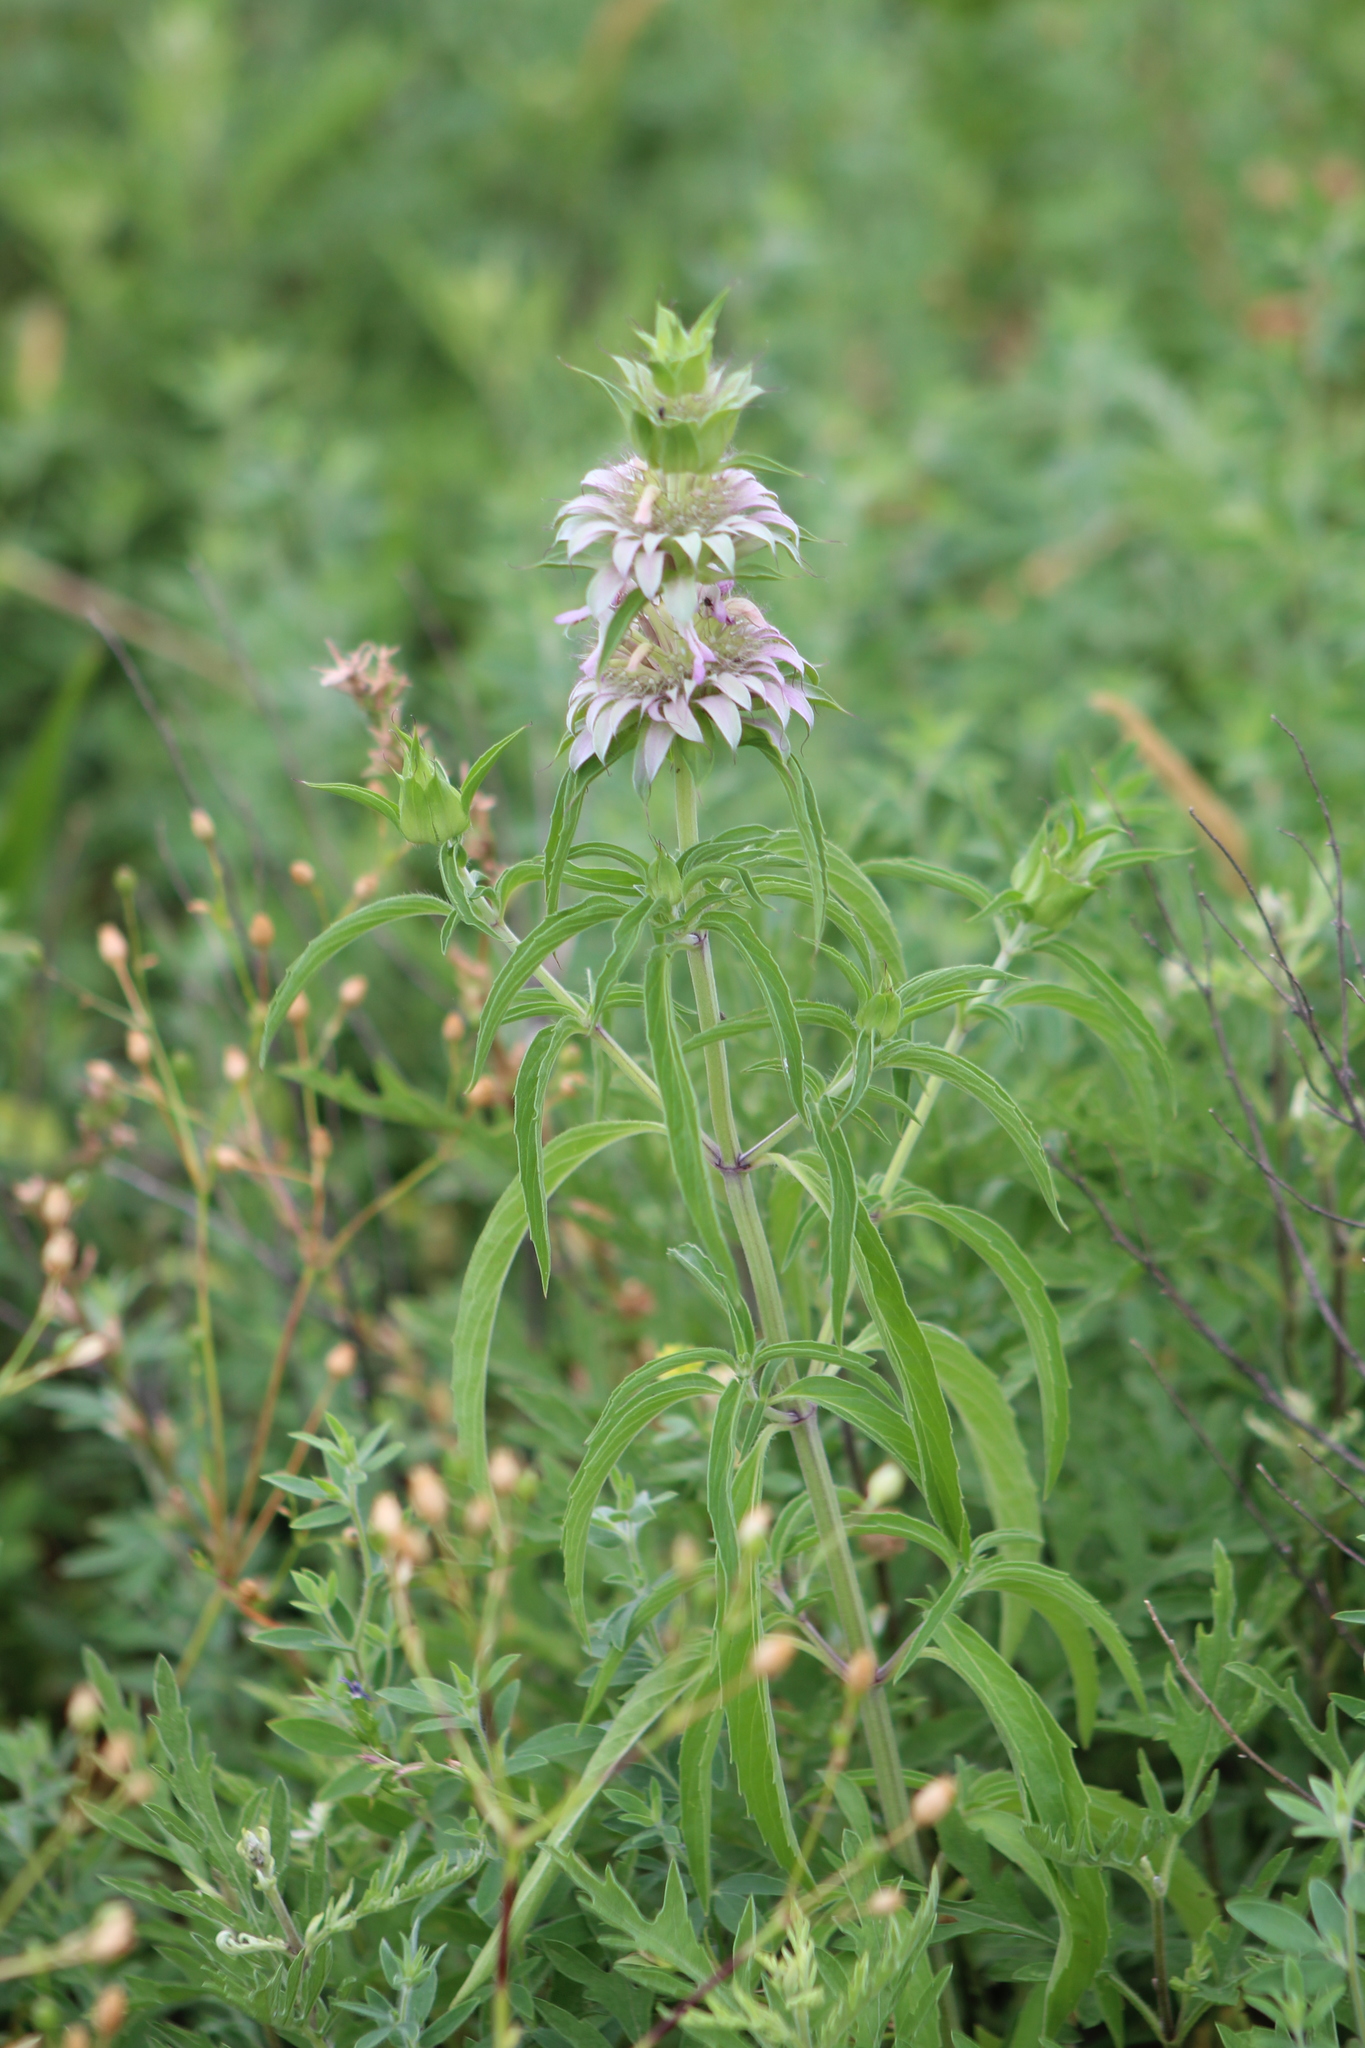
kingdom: Plantae
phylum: Tracheophyta
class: Magnoliopsida
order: Lamiales
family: Lamiaceae
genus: Monarda
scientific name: Monarda citriodora
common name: Lemon beebalm
